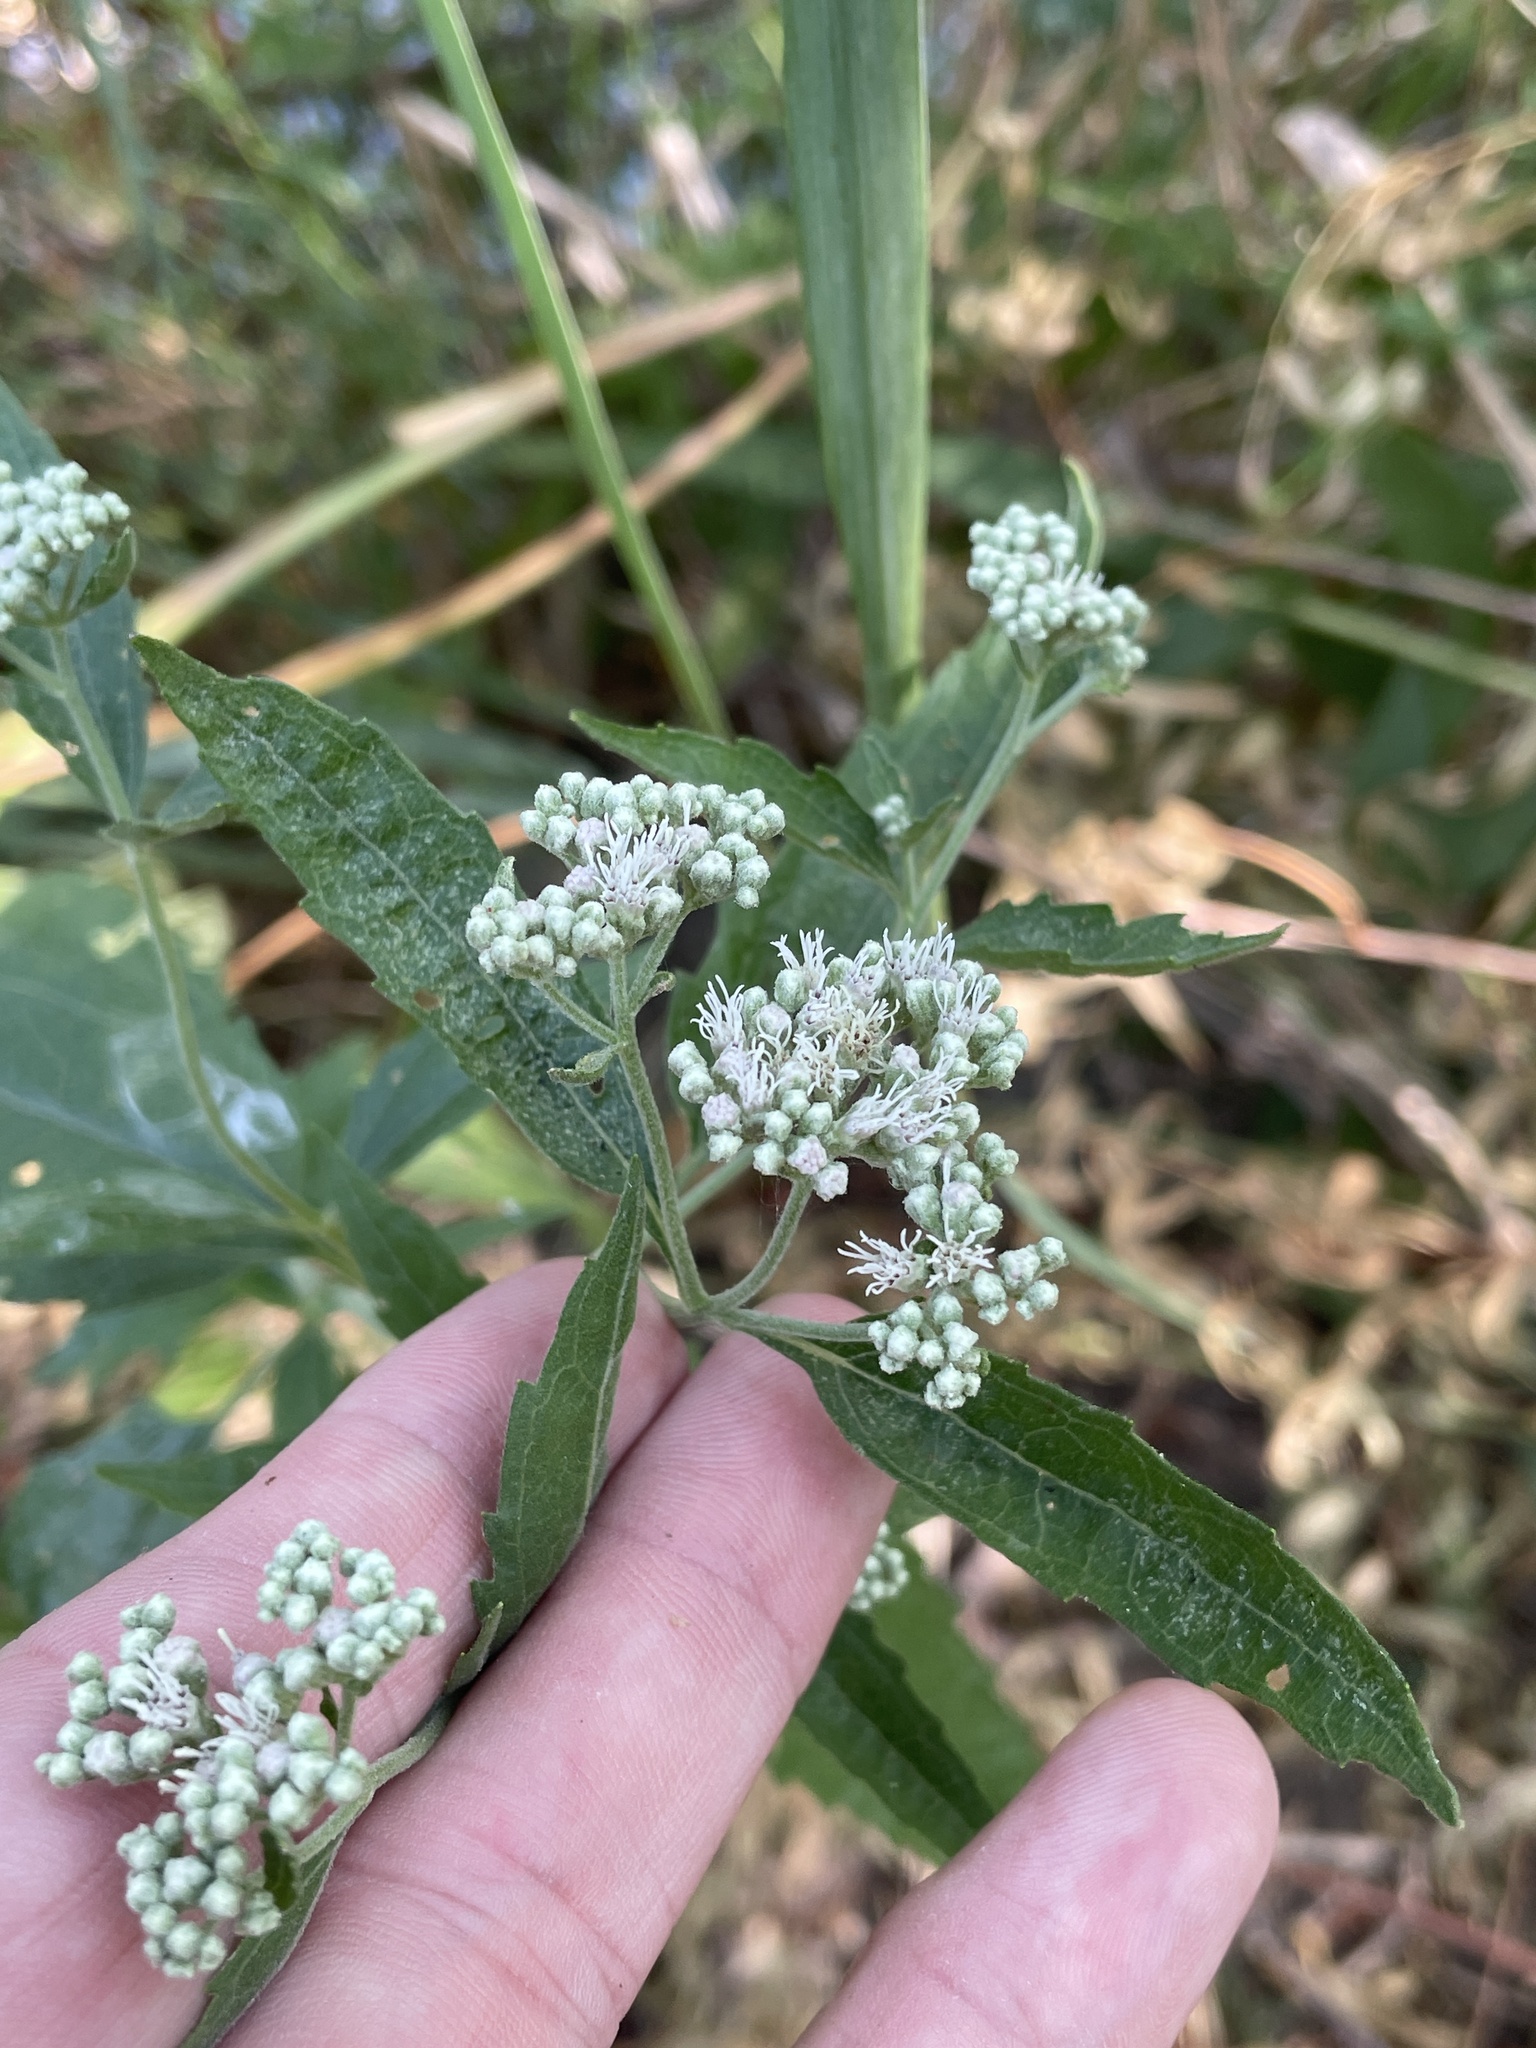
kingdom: Plantae
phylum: Tracheophyta
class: Magnoliopsida
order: Asterales
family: Asteraceae
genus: Eupatorium
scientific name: Eupatorium serotinum
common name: Late boneset
